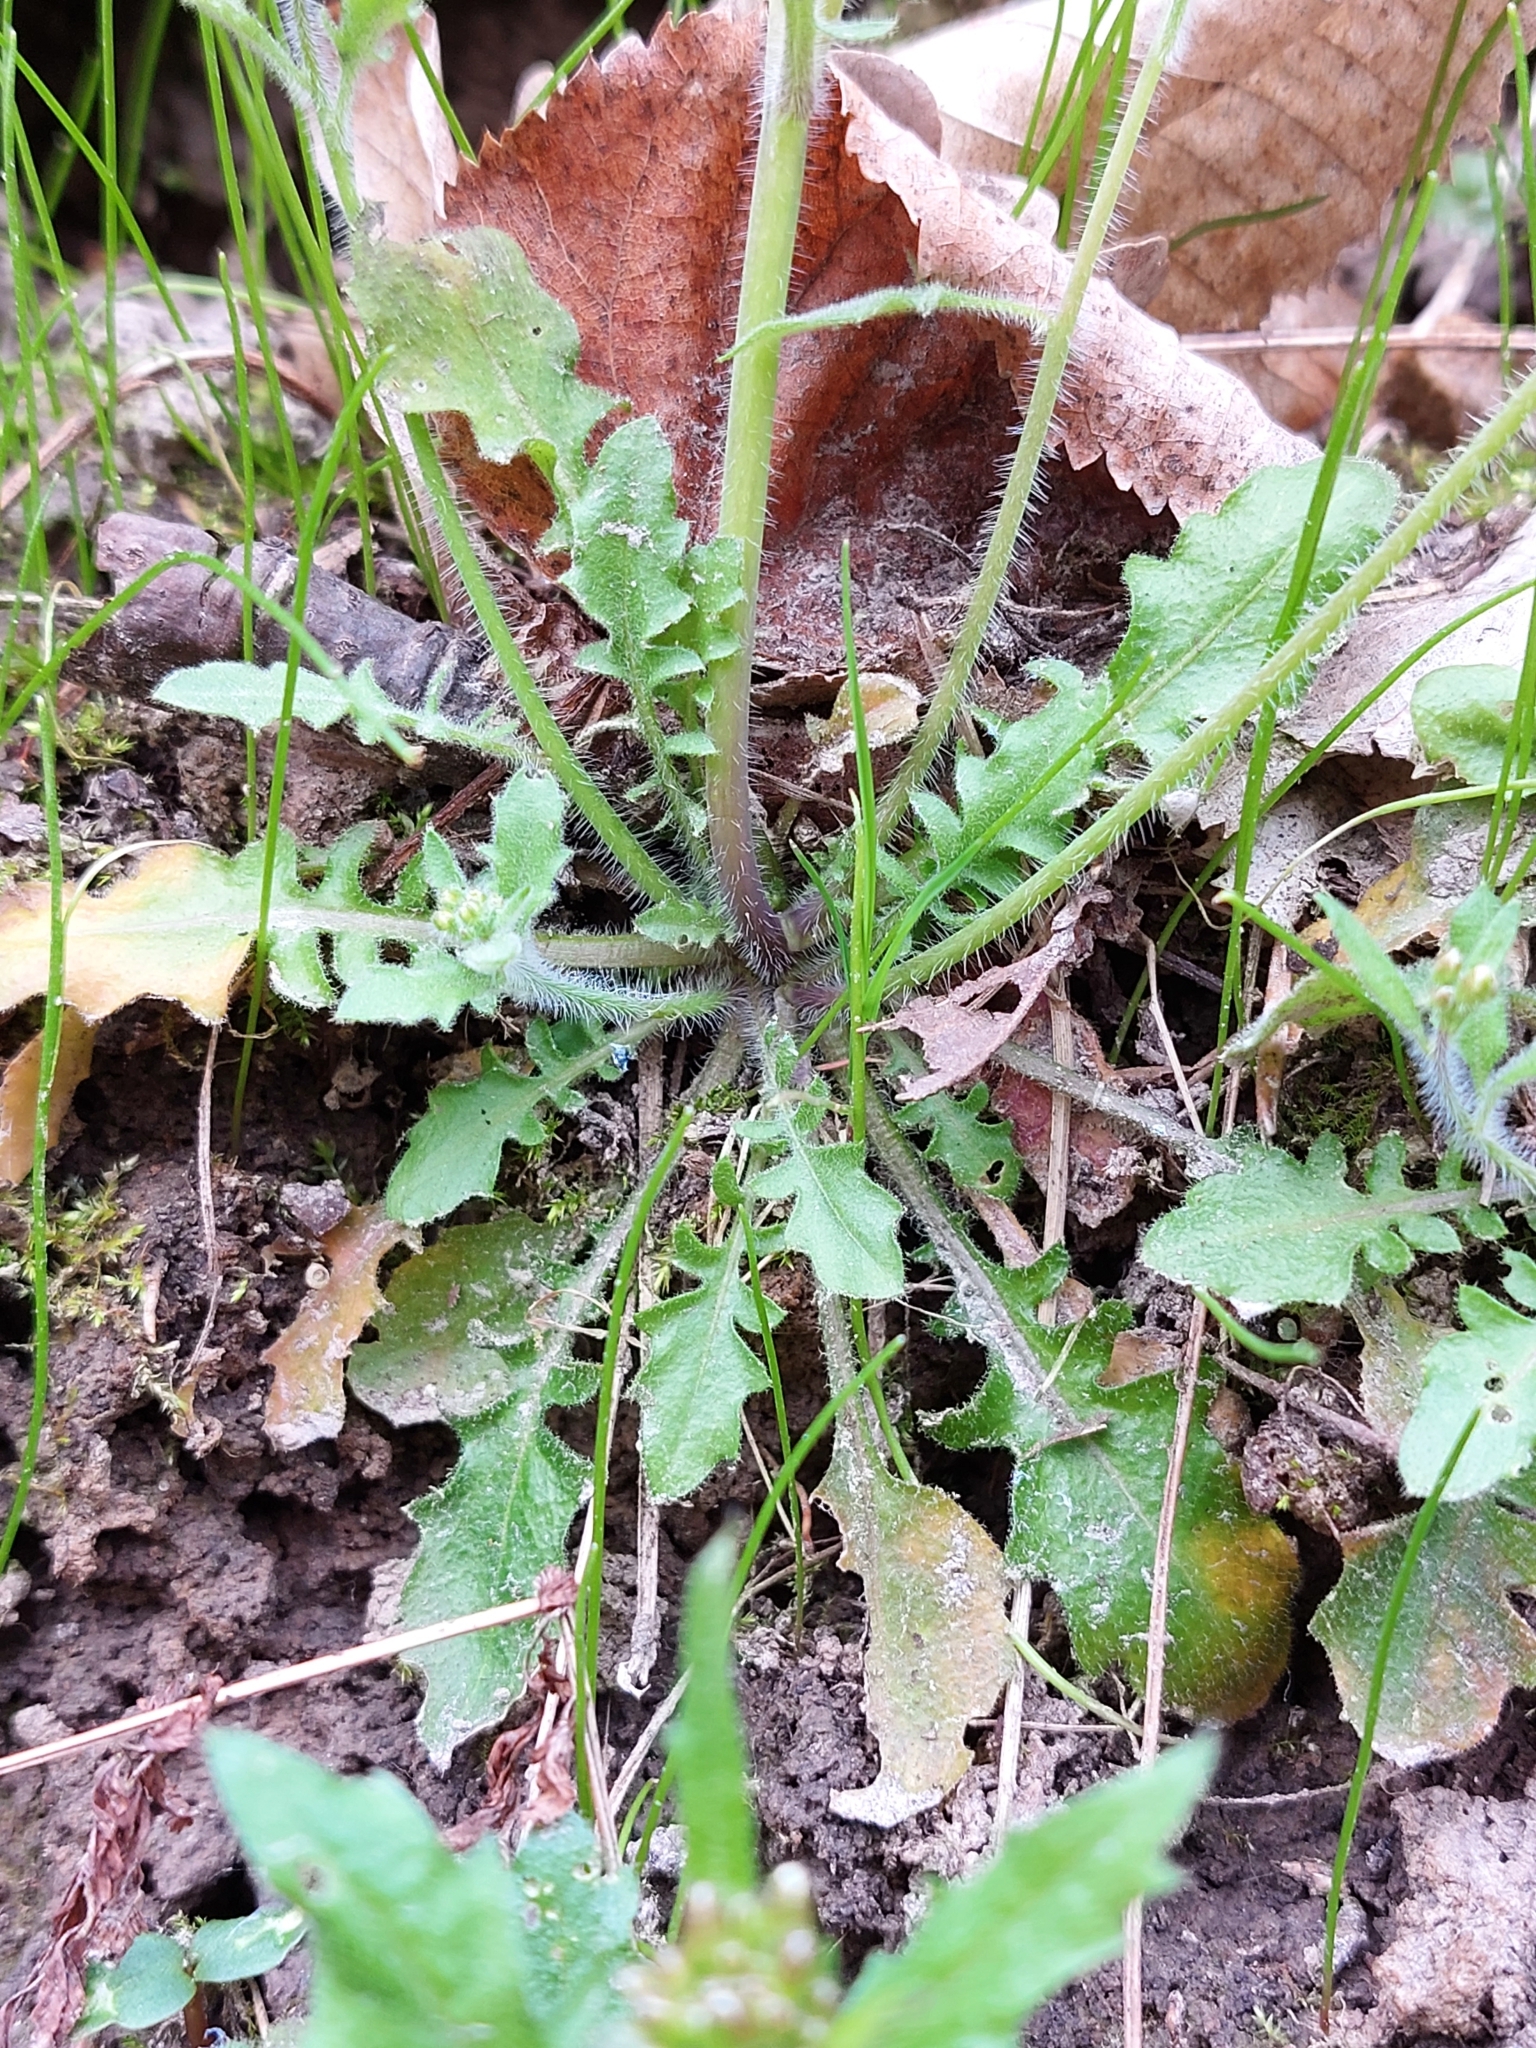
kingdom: Plantae
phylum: Tracheophyta
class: Magnoliopsida
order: Brassicales
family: Brassicaceae
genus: Arabidopsis
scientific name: Arabidopsis arenosa
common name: Sand rock-cress
